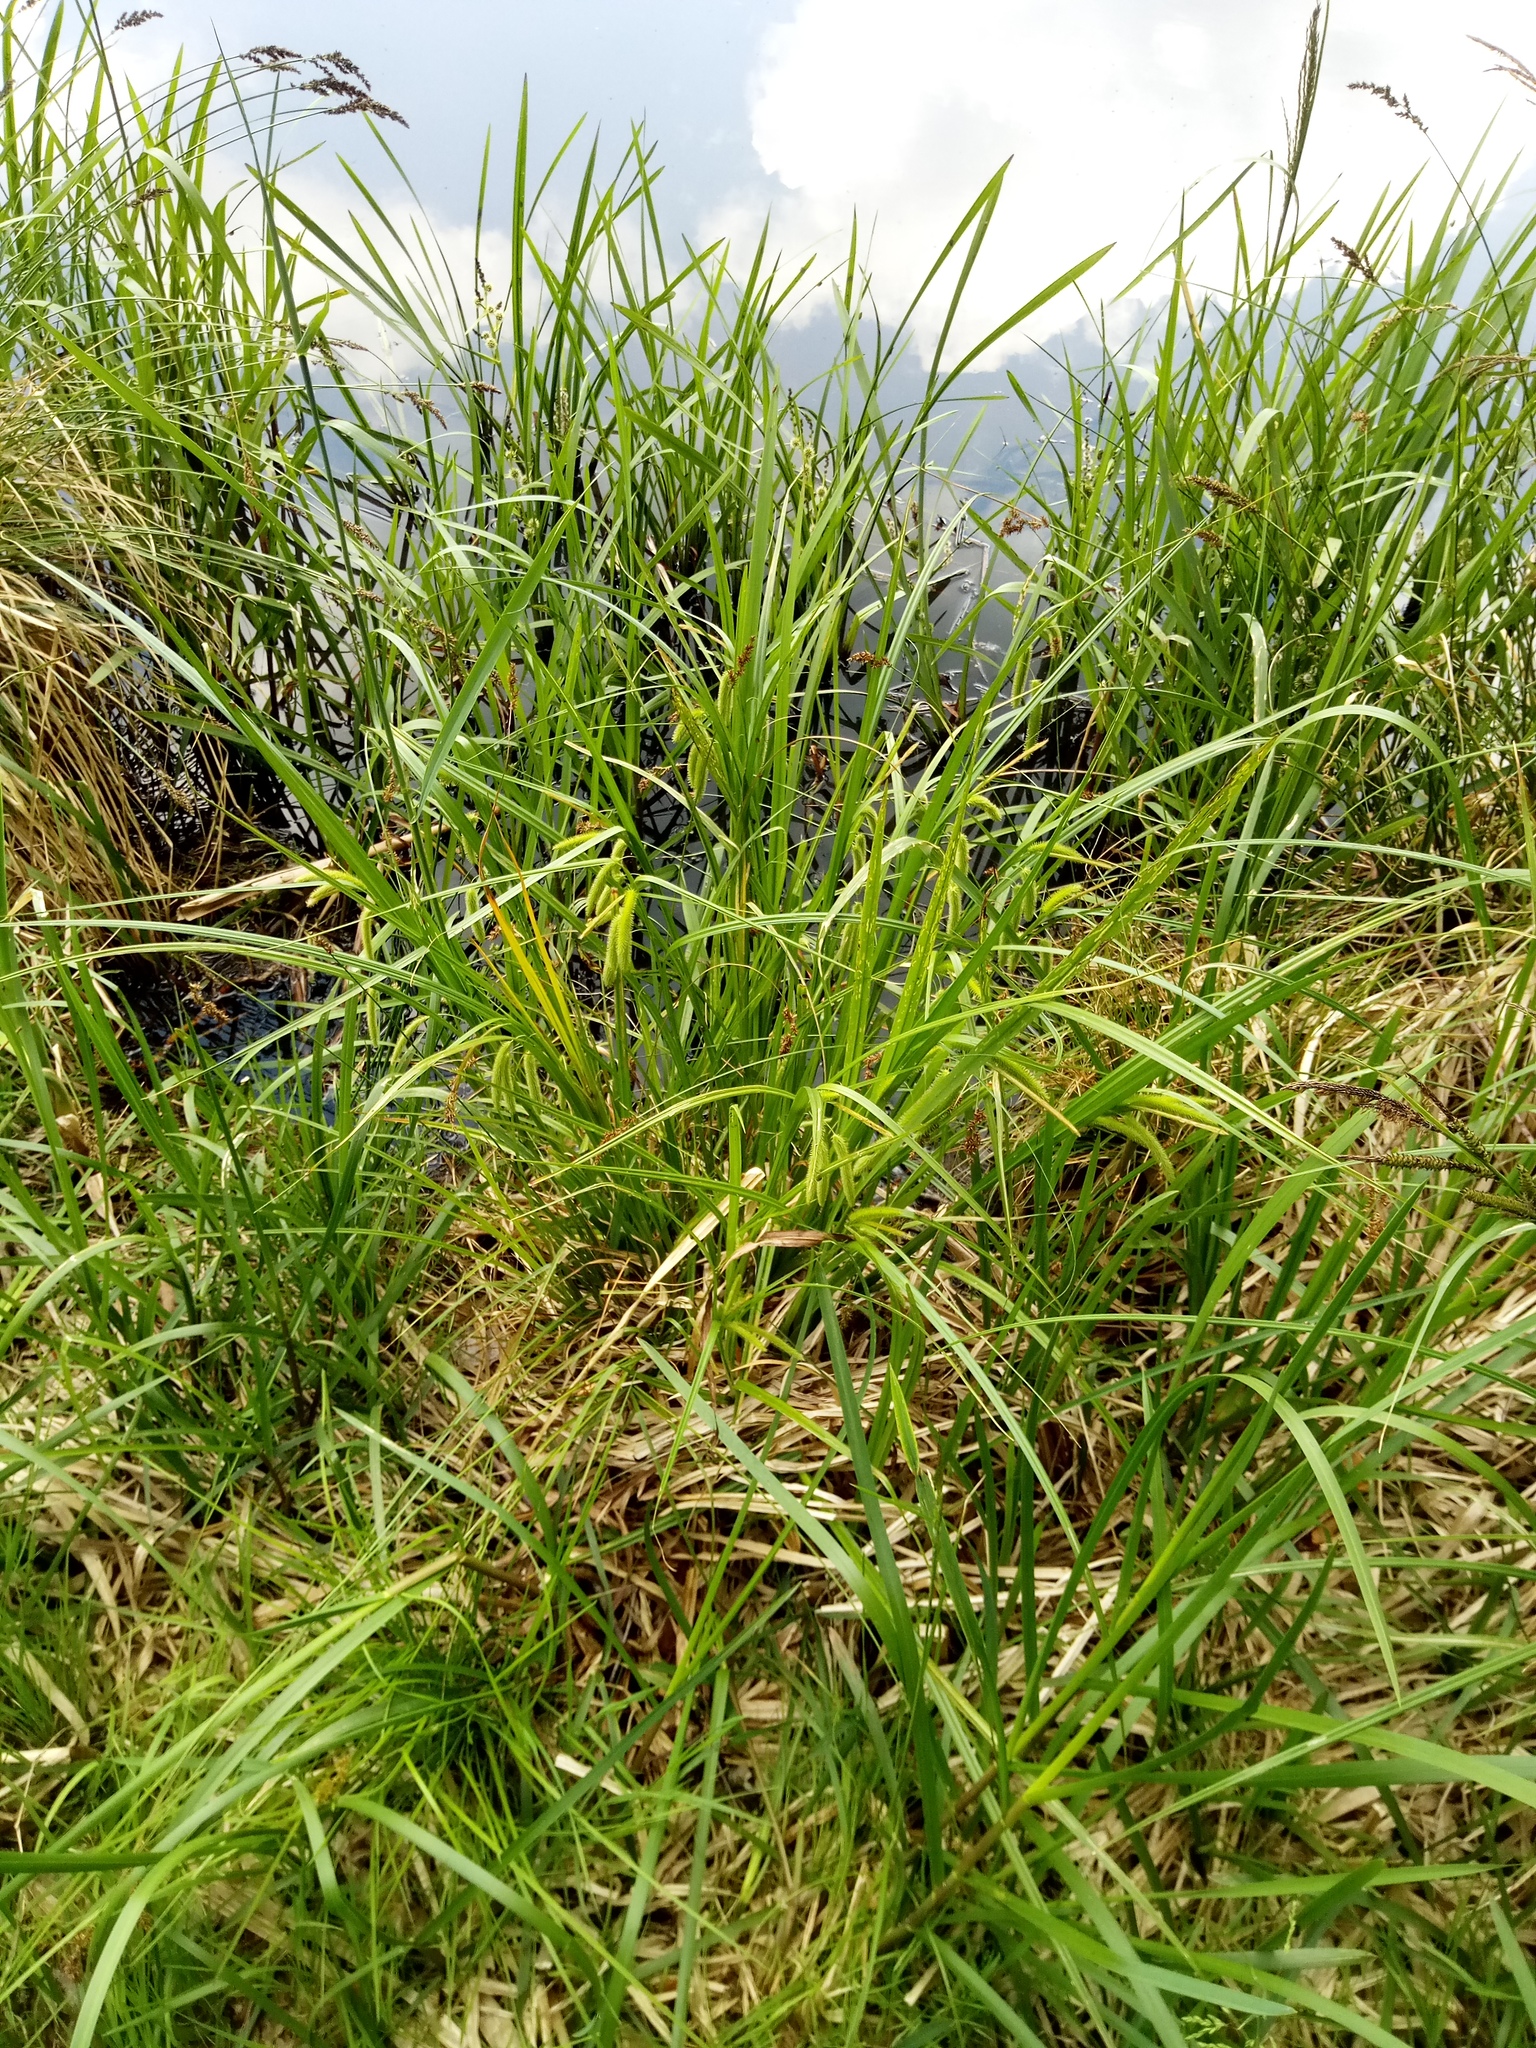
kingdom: Plantae
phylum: Tracheophyta
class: Liliopsida
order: Poales
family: Cyperaceae
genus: Carex
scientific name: Carex pseudocyperus
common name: Cyperus sedge
